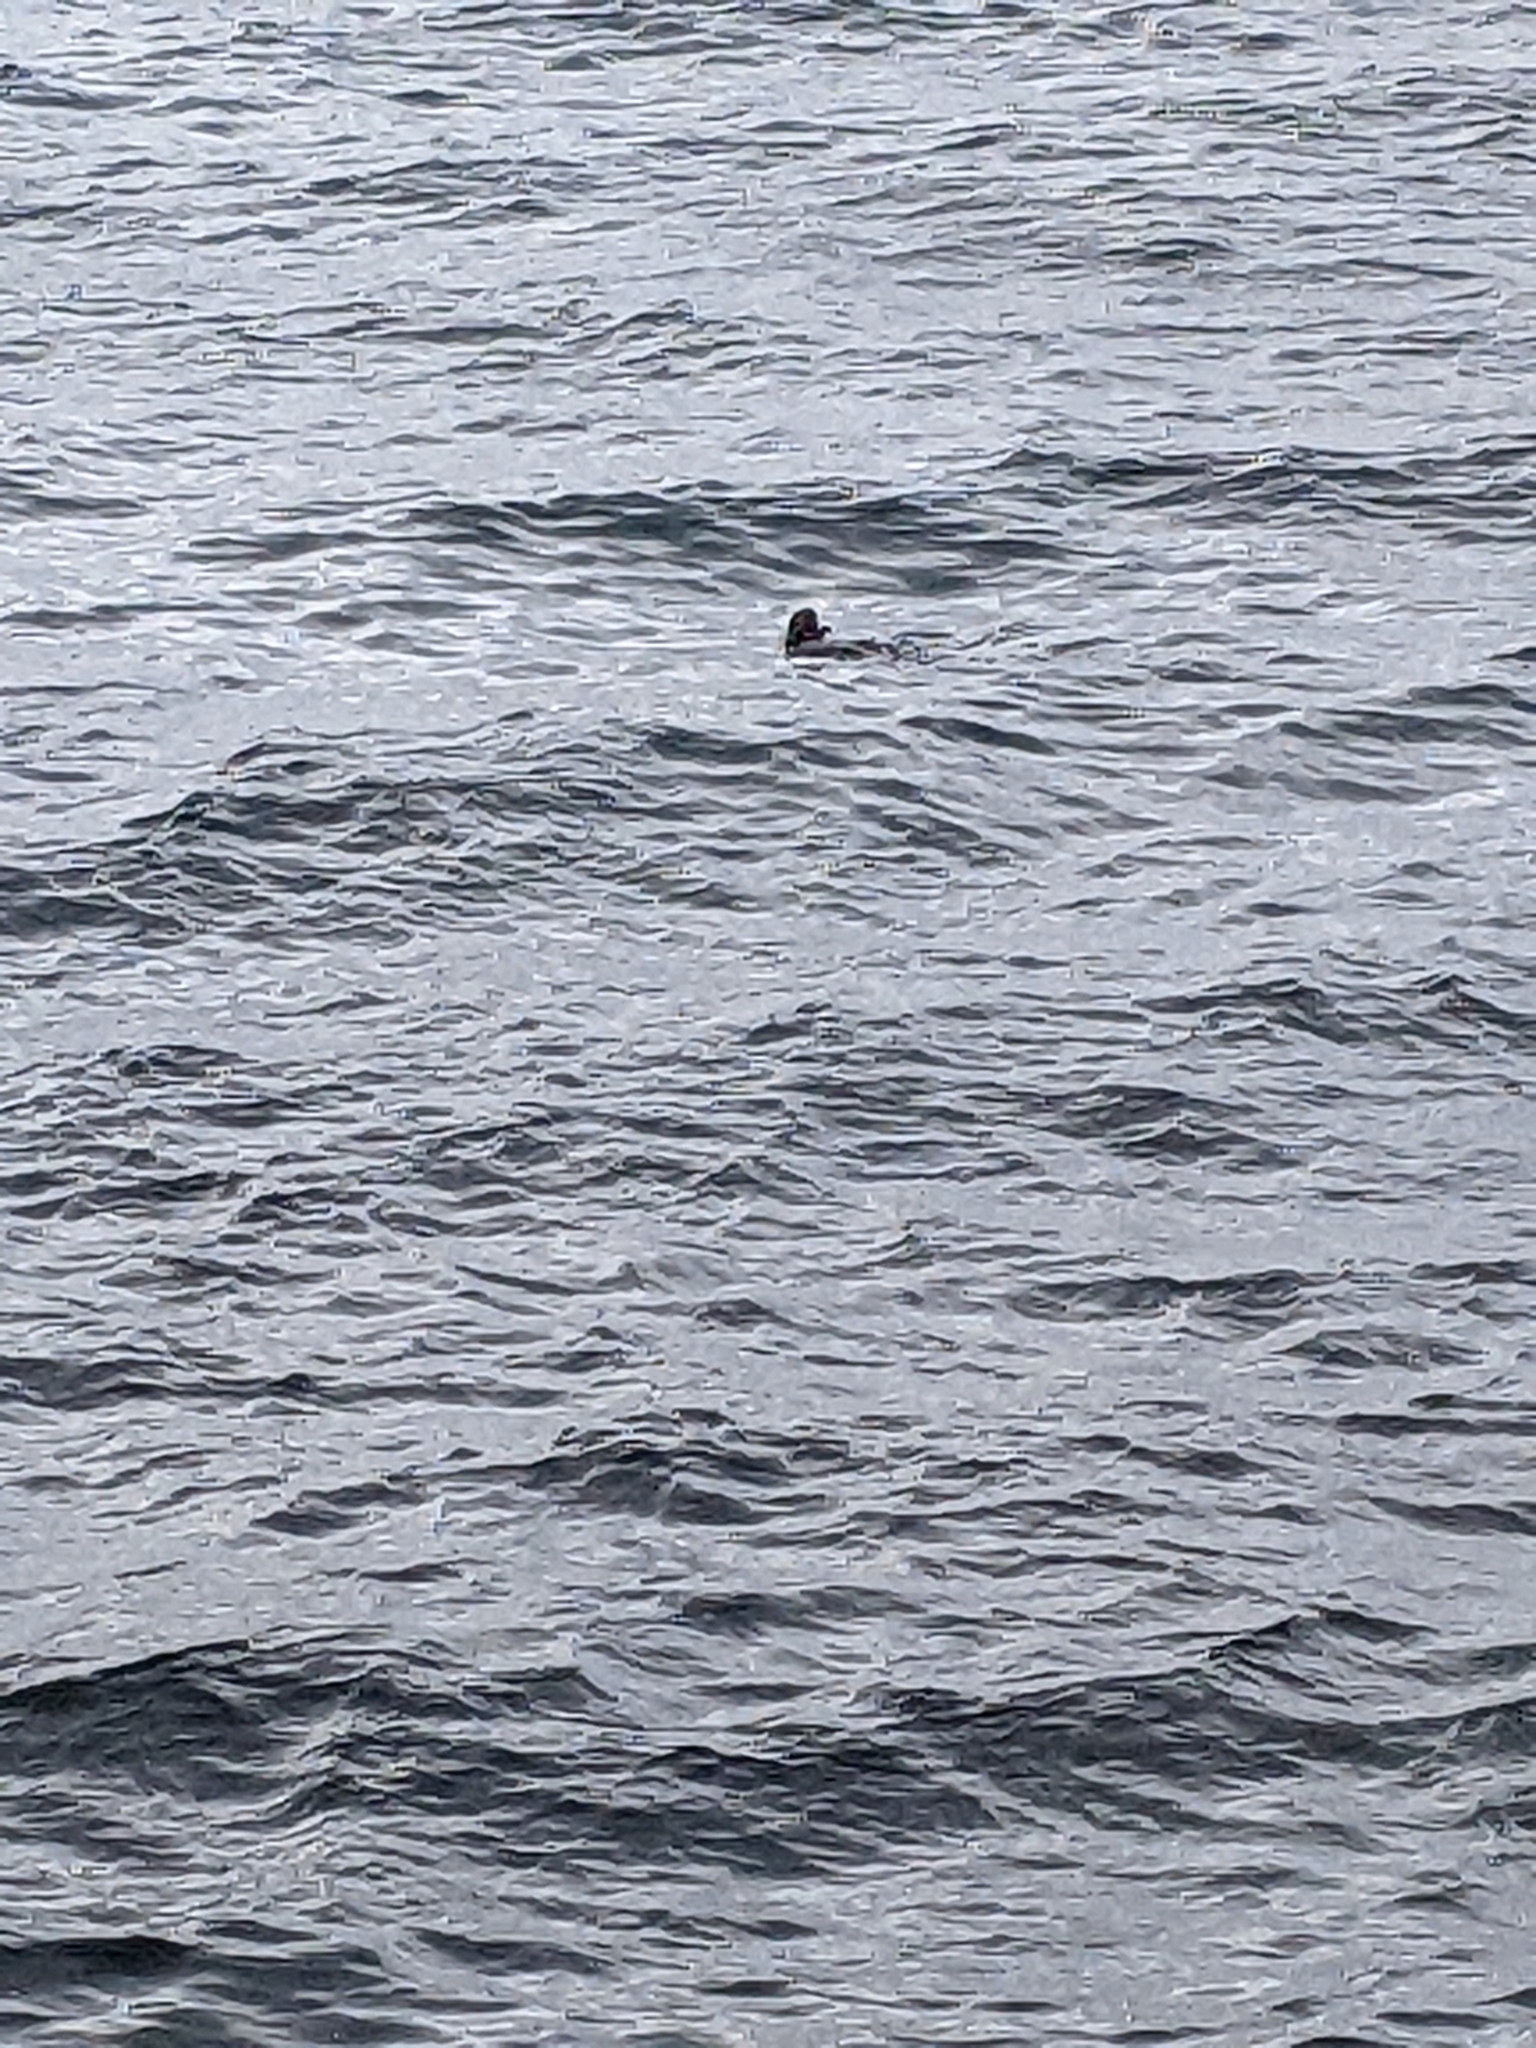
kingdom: Animalia
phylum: Chordata
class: Mammalia
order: Carnivora
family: Mustelidae
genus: Enhydra
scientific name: Enhydra lutris
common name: Sea otter
